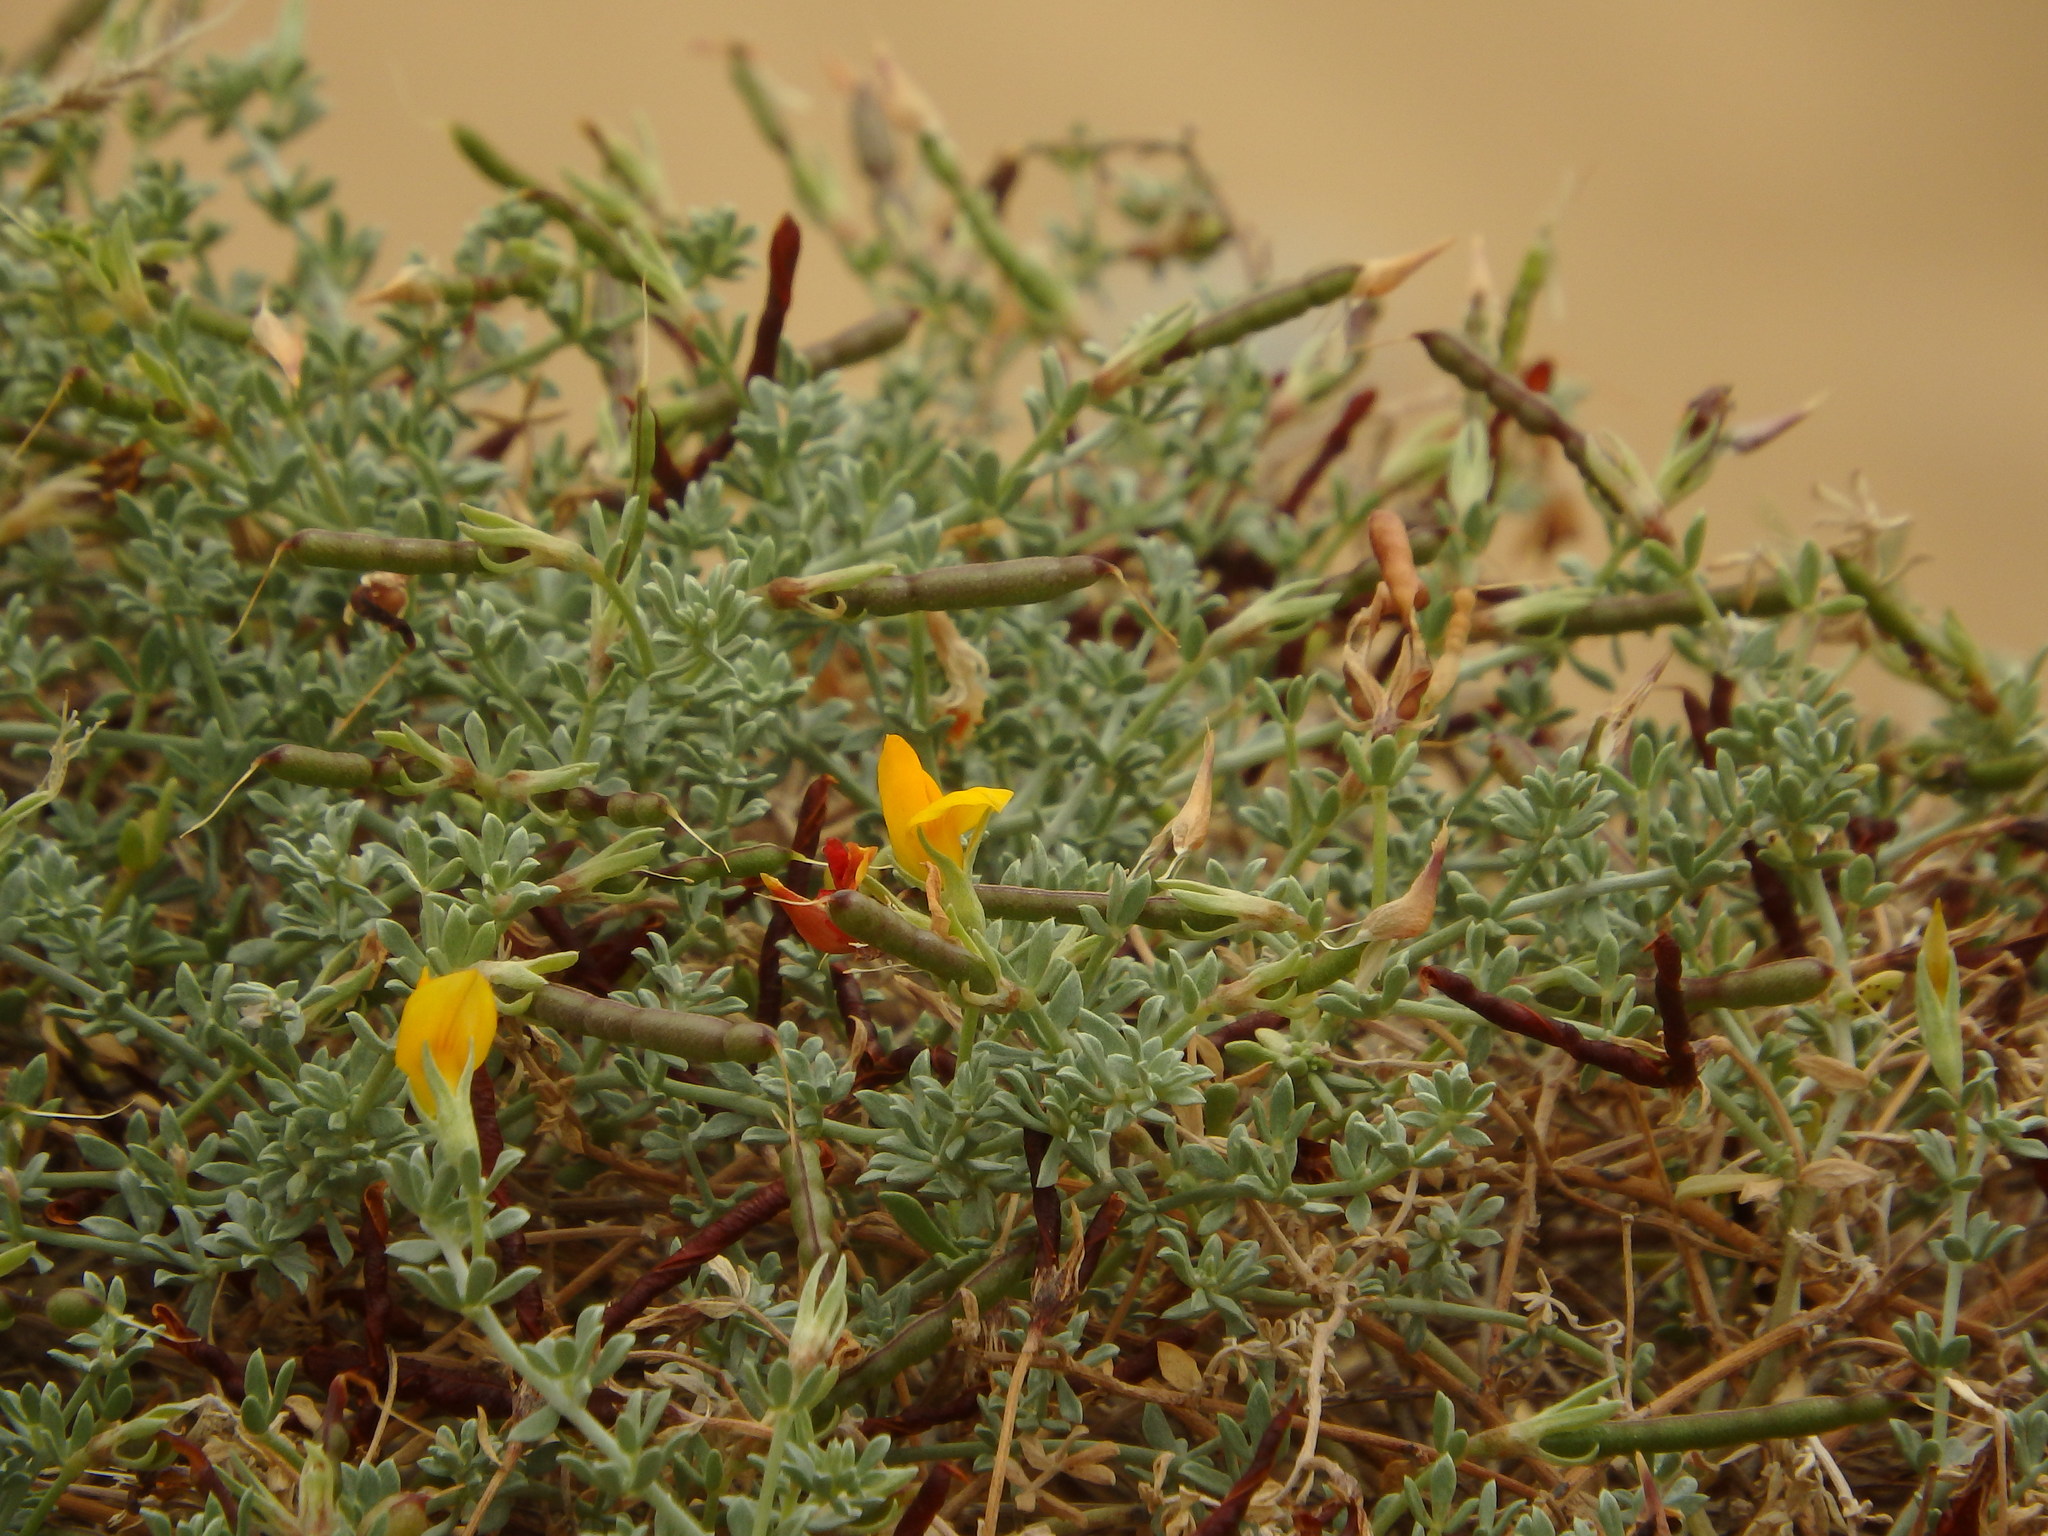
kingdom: Plantae
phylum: Tracheophyta
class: Magnoliopsida
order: Fabales
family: Fabaceae
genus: Lotus
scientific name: Lotus glaucus
